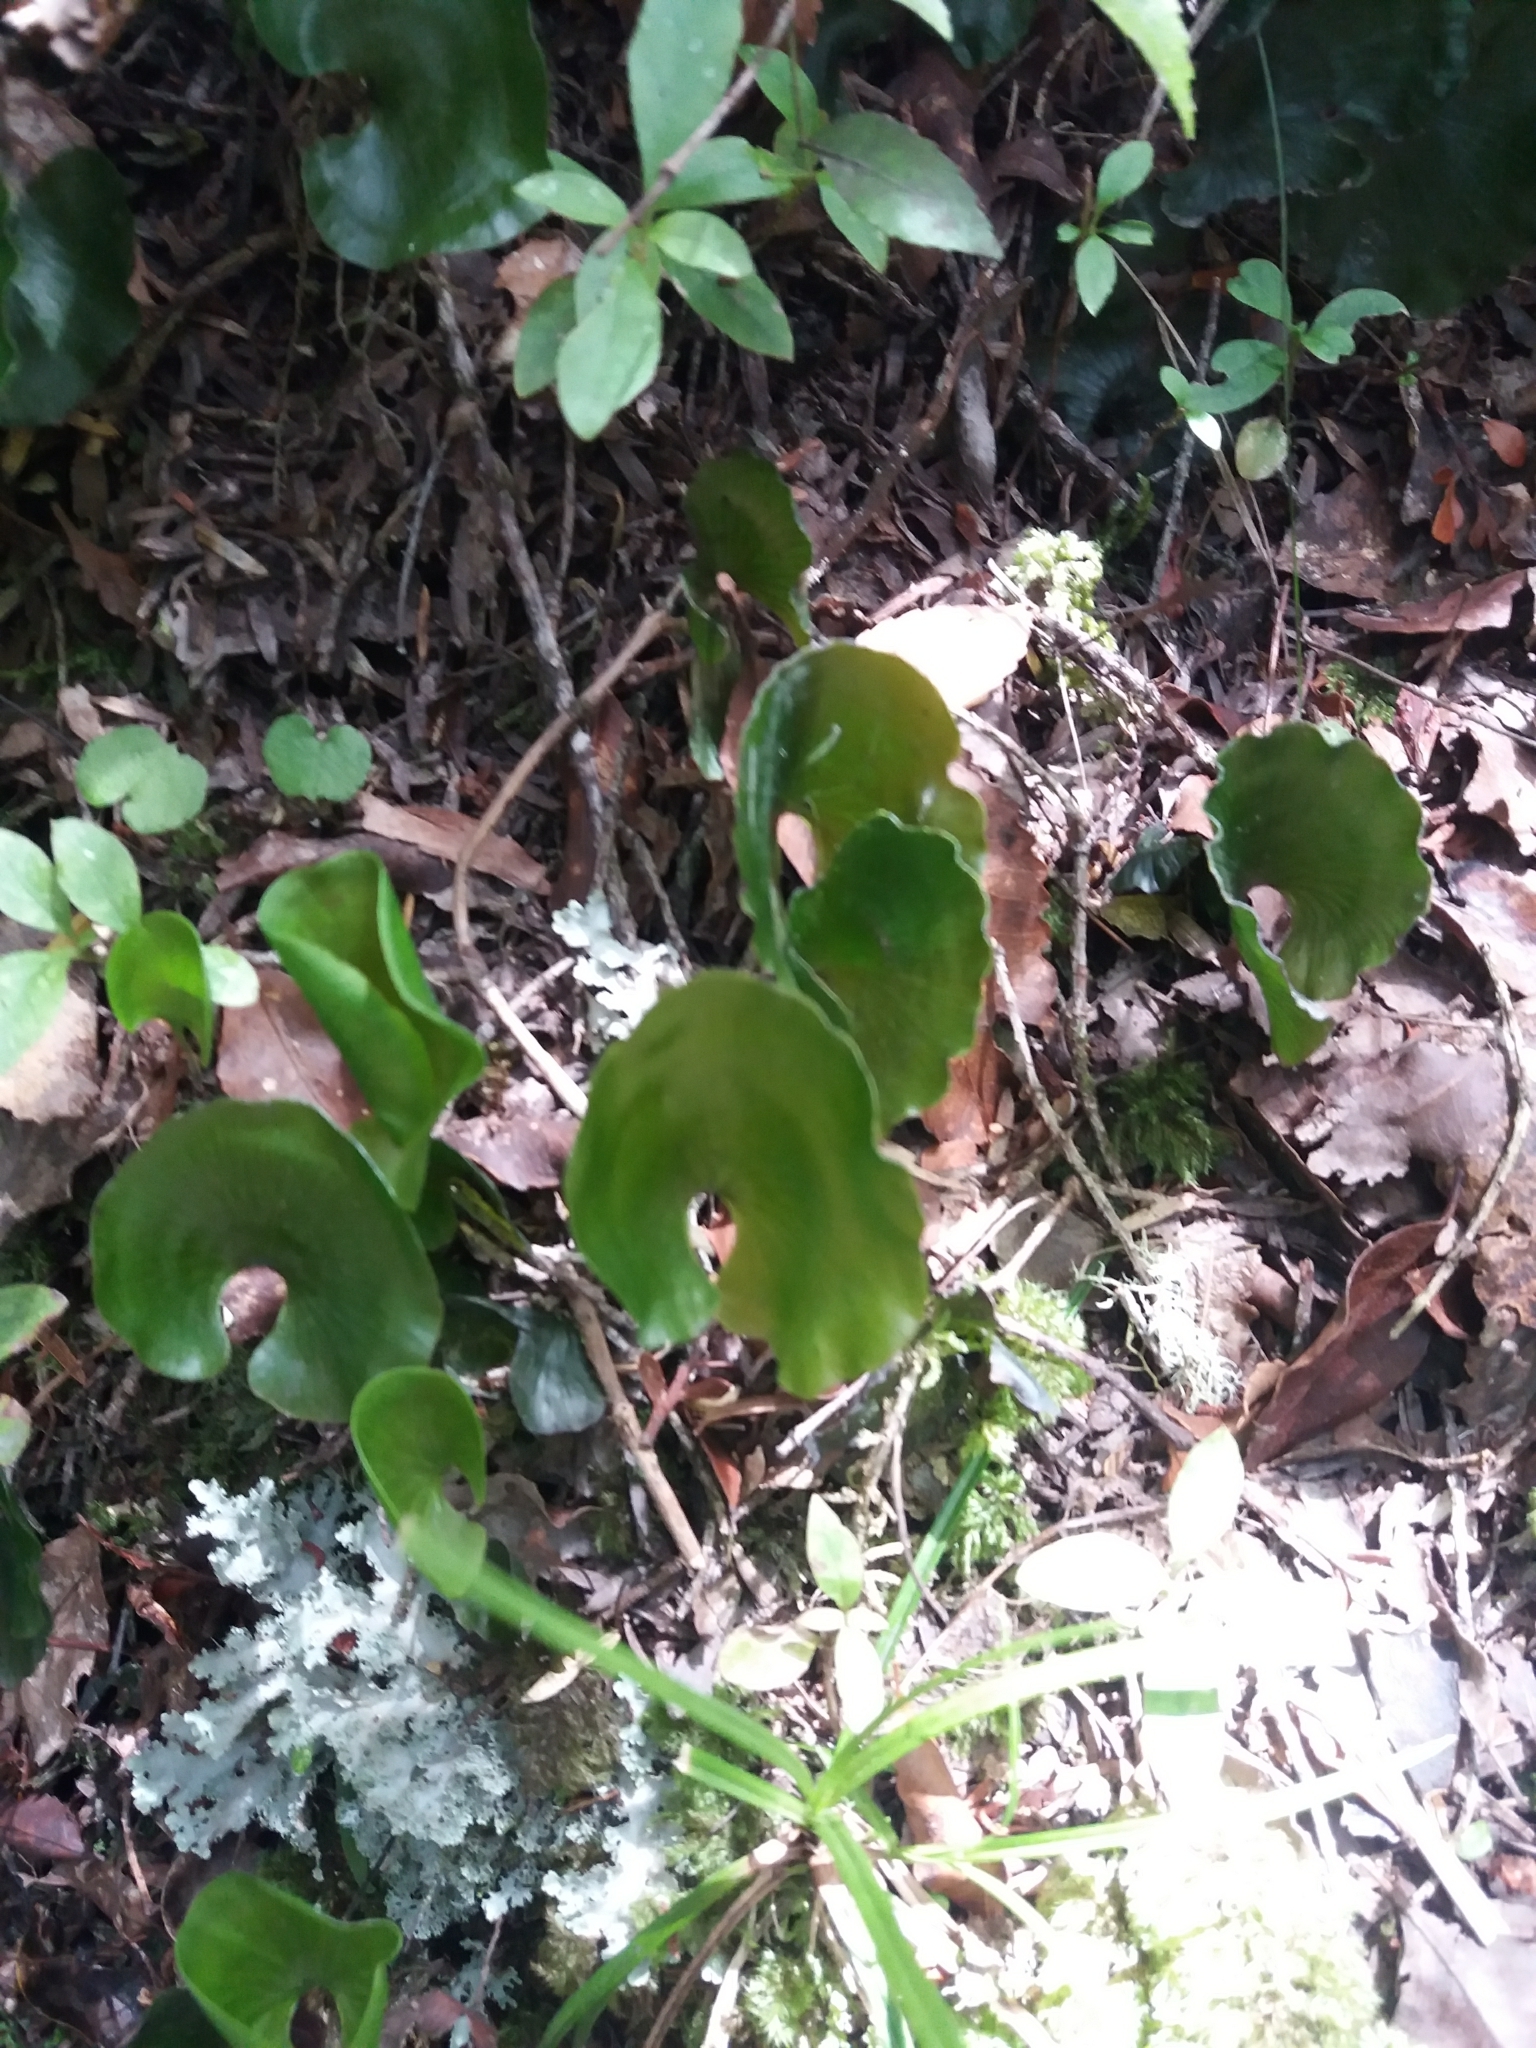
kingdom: Plantae
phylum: Tracheophyta
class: Polypodiopsida
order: Hymenophyllales
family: Hymenophyllaceae
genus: Hymenophyllum
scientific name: Hymenophyllum nephrophyllum
